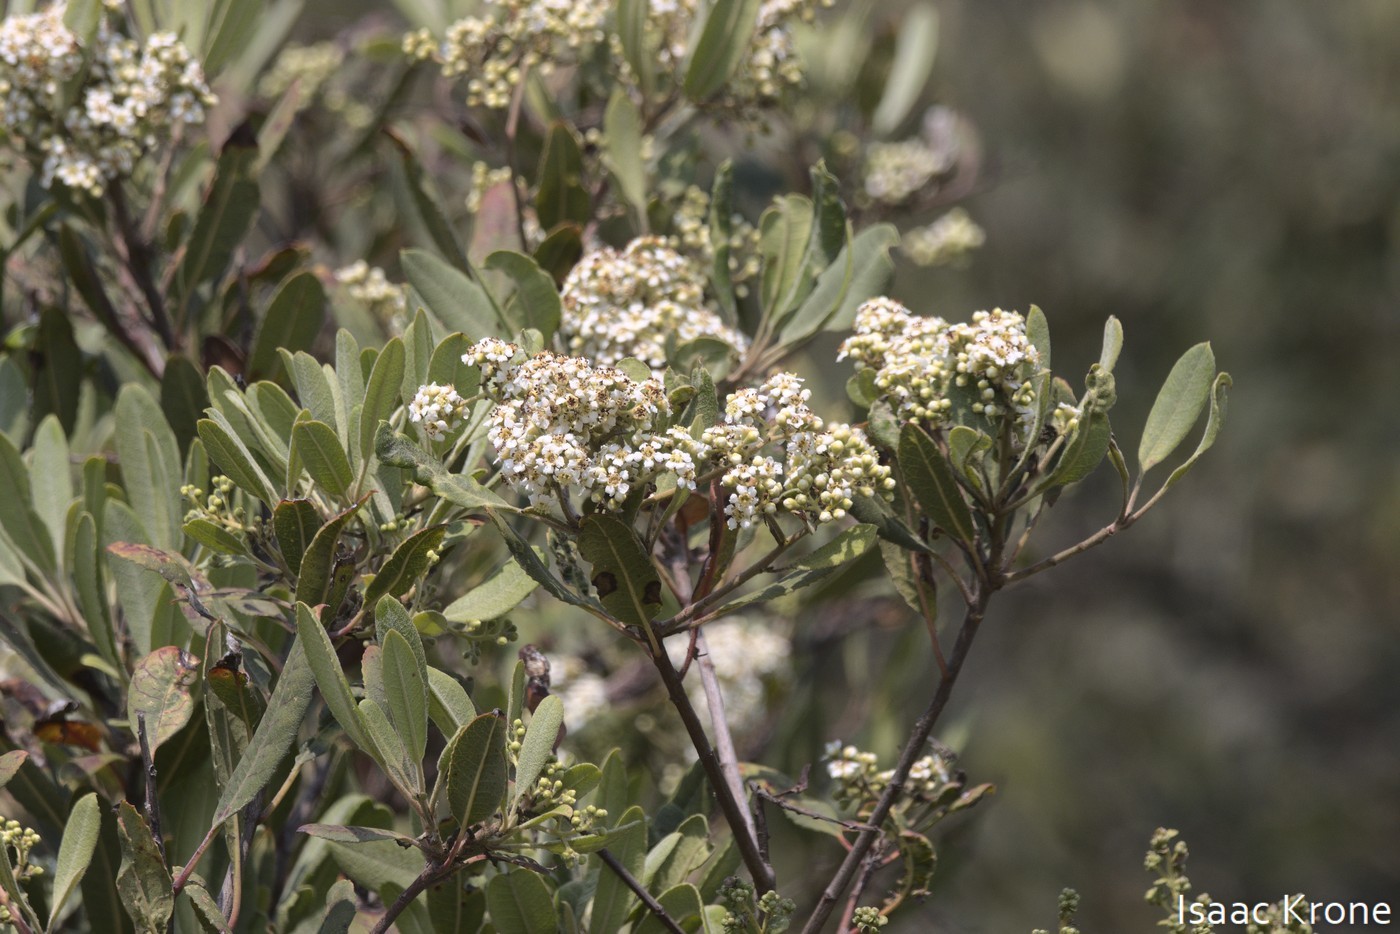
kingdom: Plantae
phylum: Tracheophyta
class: Magnoliopsida
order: Rosales
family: Rosaceae
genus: Heteromeles
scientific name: Heteromeles arbutifolia
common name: California-holly
